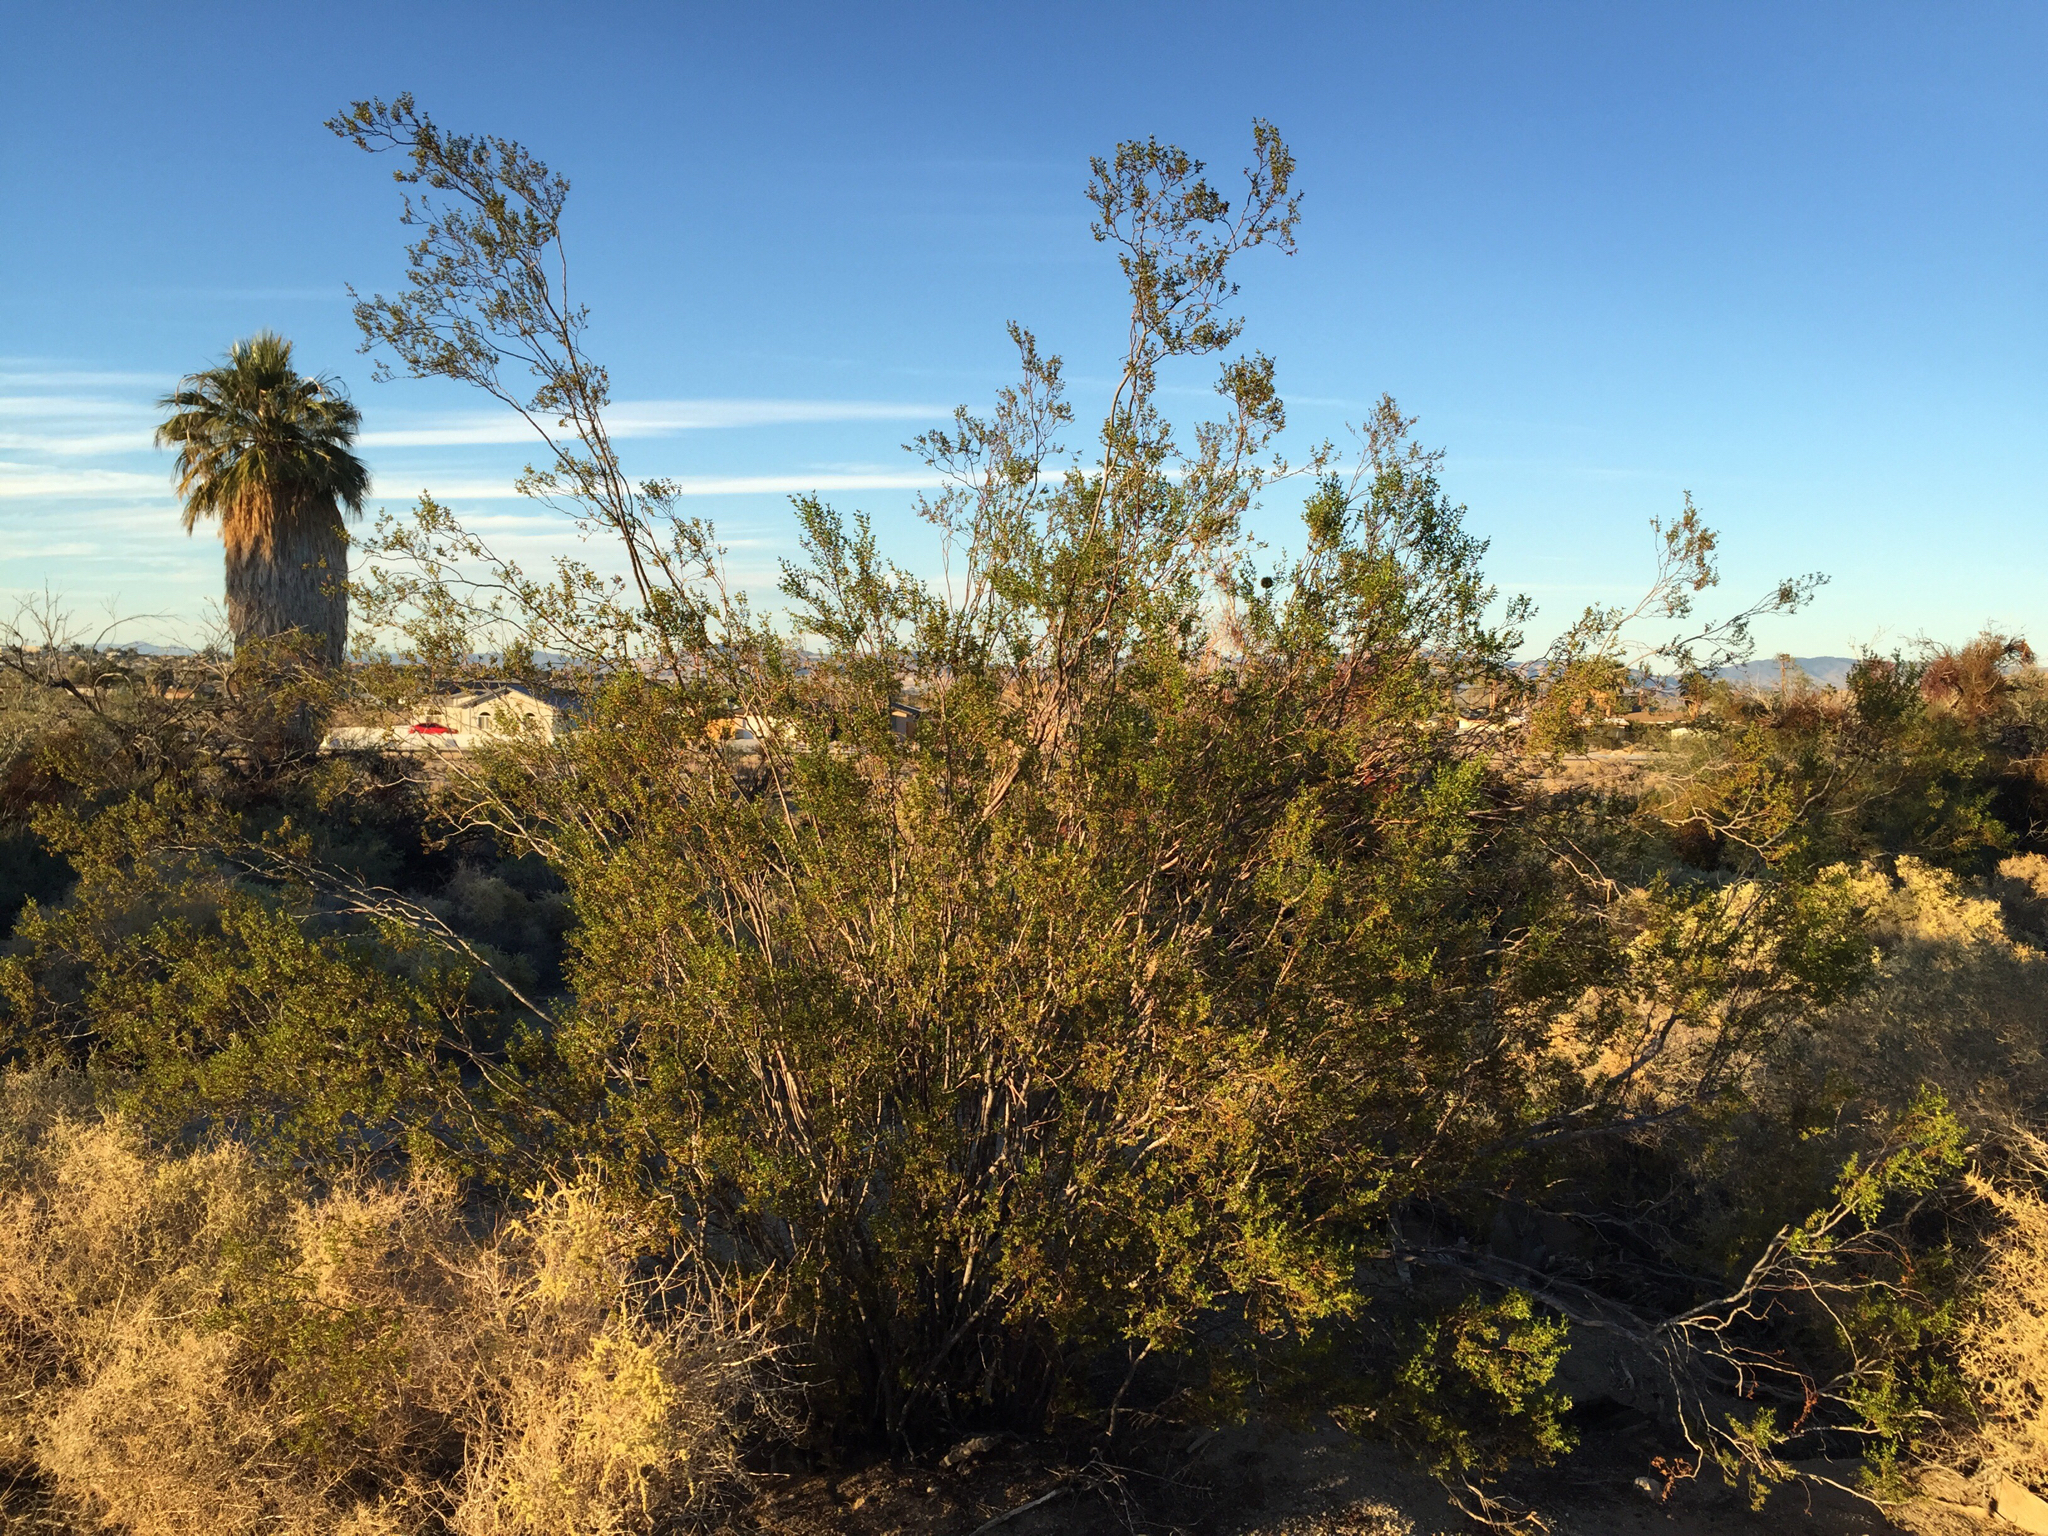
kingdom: Plantae
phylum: Tracheophyta
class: Magnoliopsida
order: Zygophyllales
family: Zygophyllaceae
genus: Larrea
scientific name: Larrea tridentata
